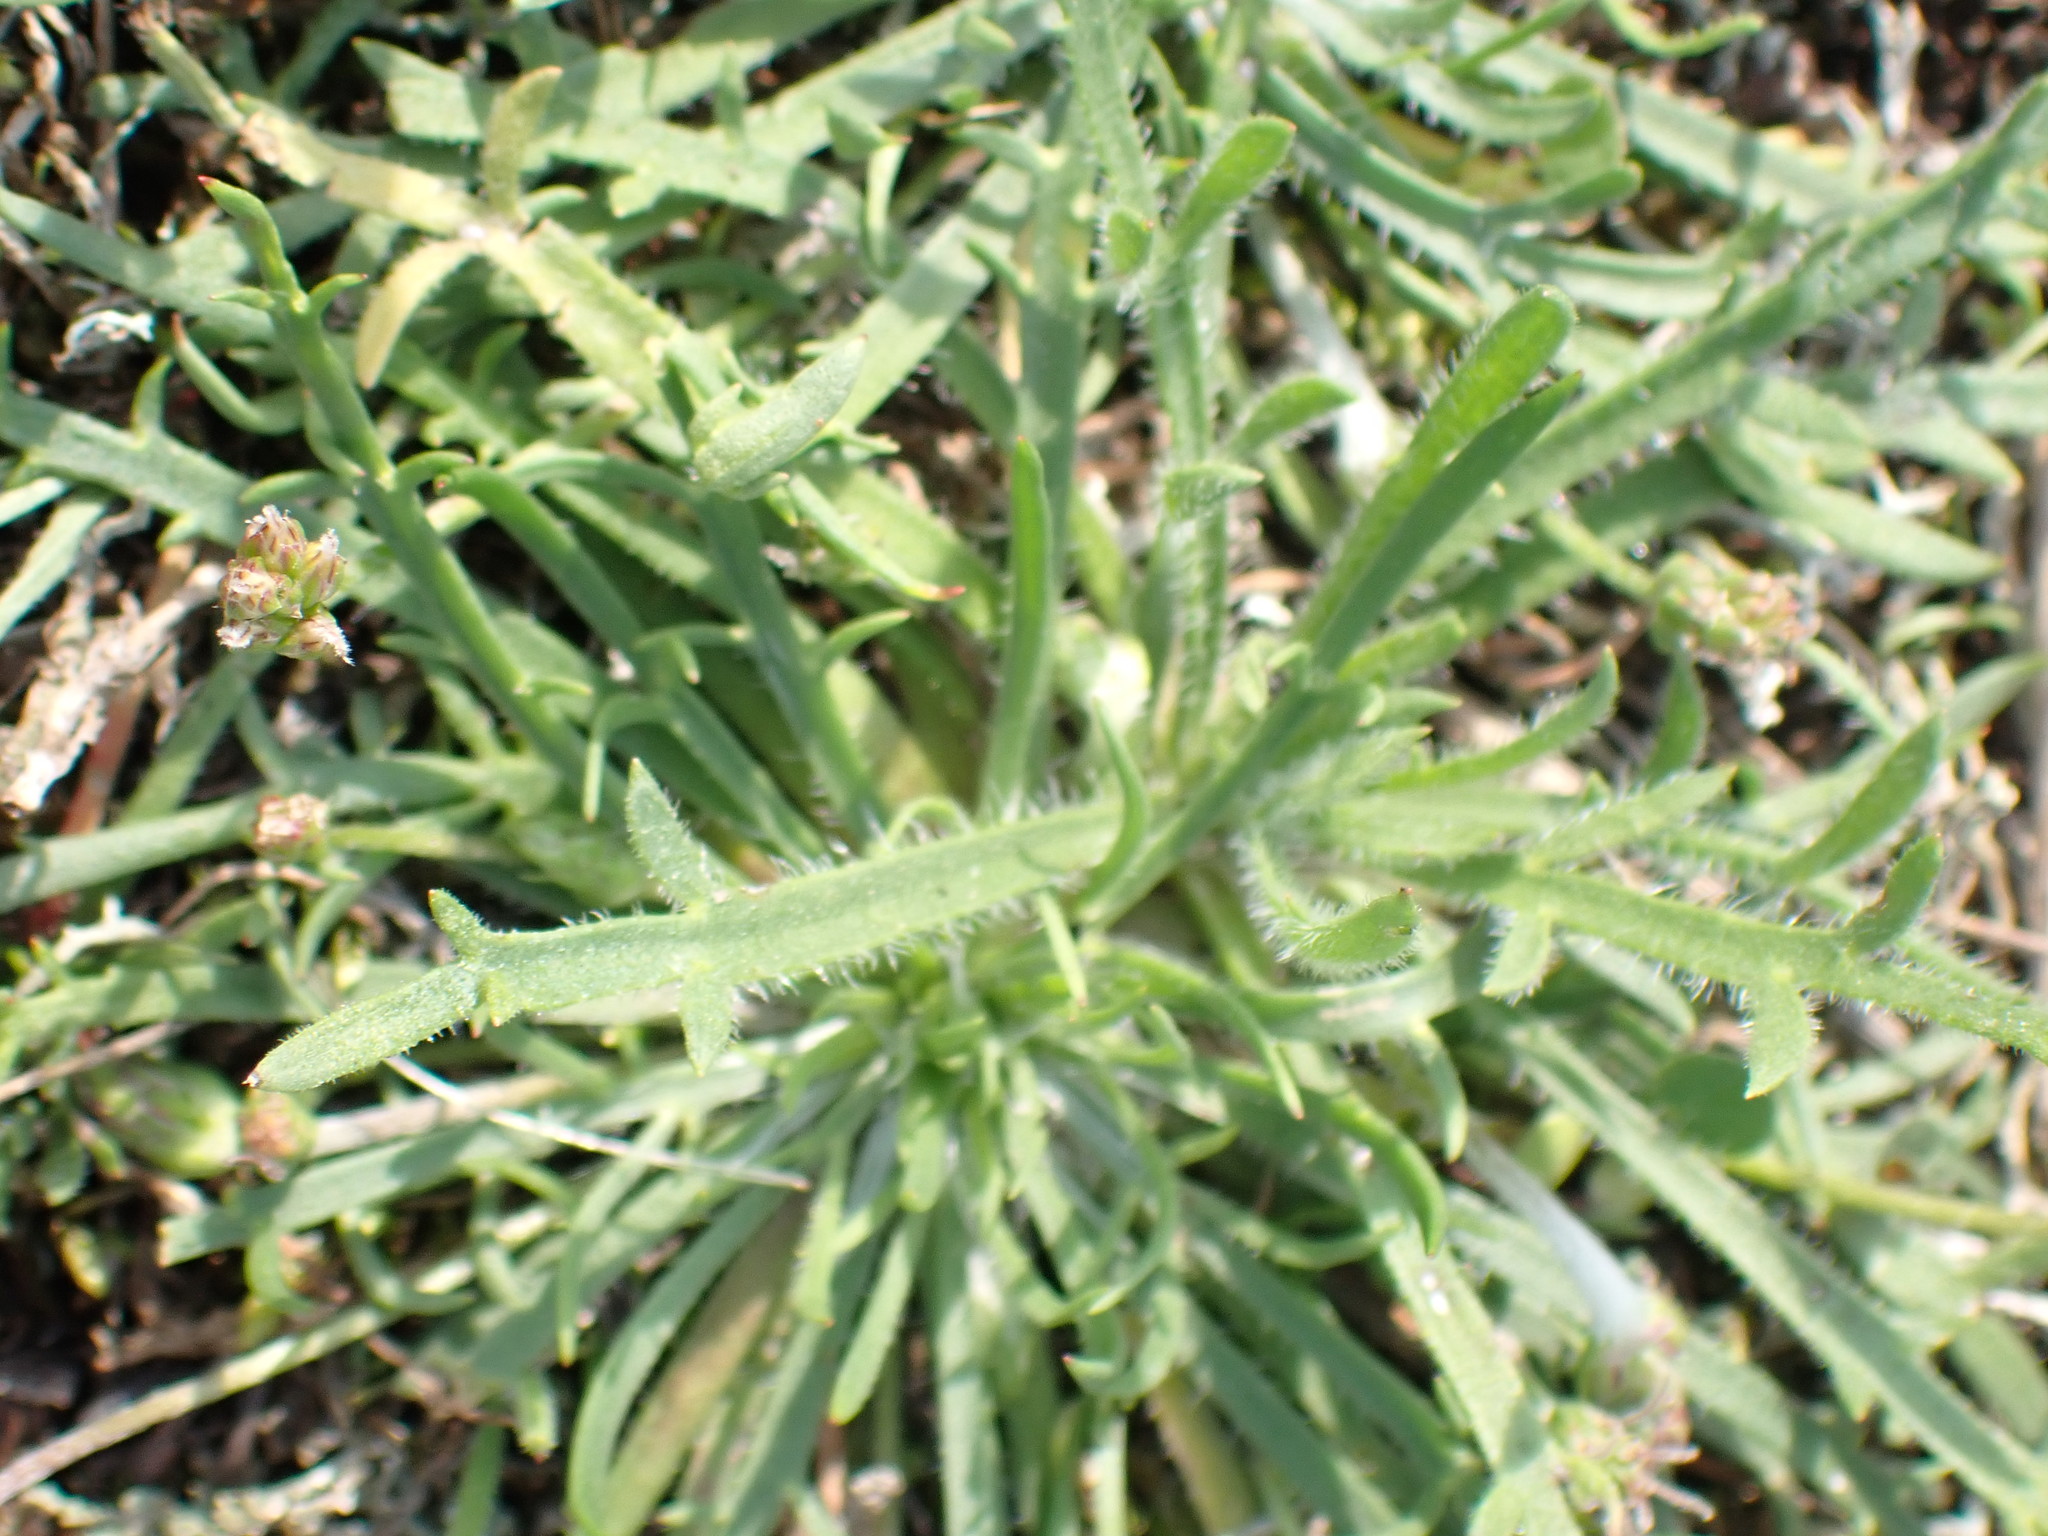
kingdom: Plantae
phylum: Tracheophyta
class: Magnoliopsida
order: Lamiales
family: Plantaginaceae
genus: Plantago
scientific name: Plantago coronopus
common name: Buck's-horn plantain
